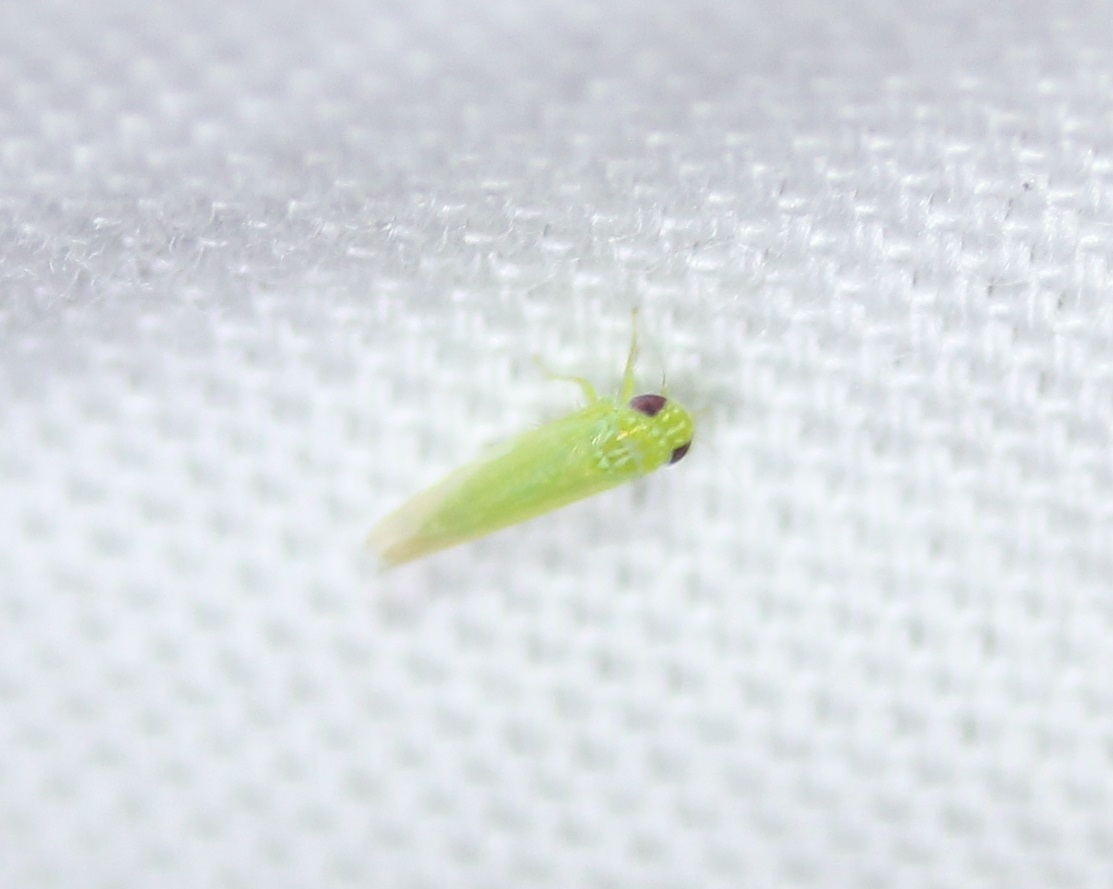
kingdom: Animalia
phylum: Arthropoda
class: Insecta
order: Hemiptera
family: Cicadellidae
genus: Empoasca
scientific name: Empoasca fabae
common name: Potato leafhopper
